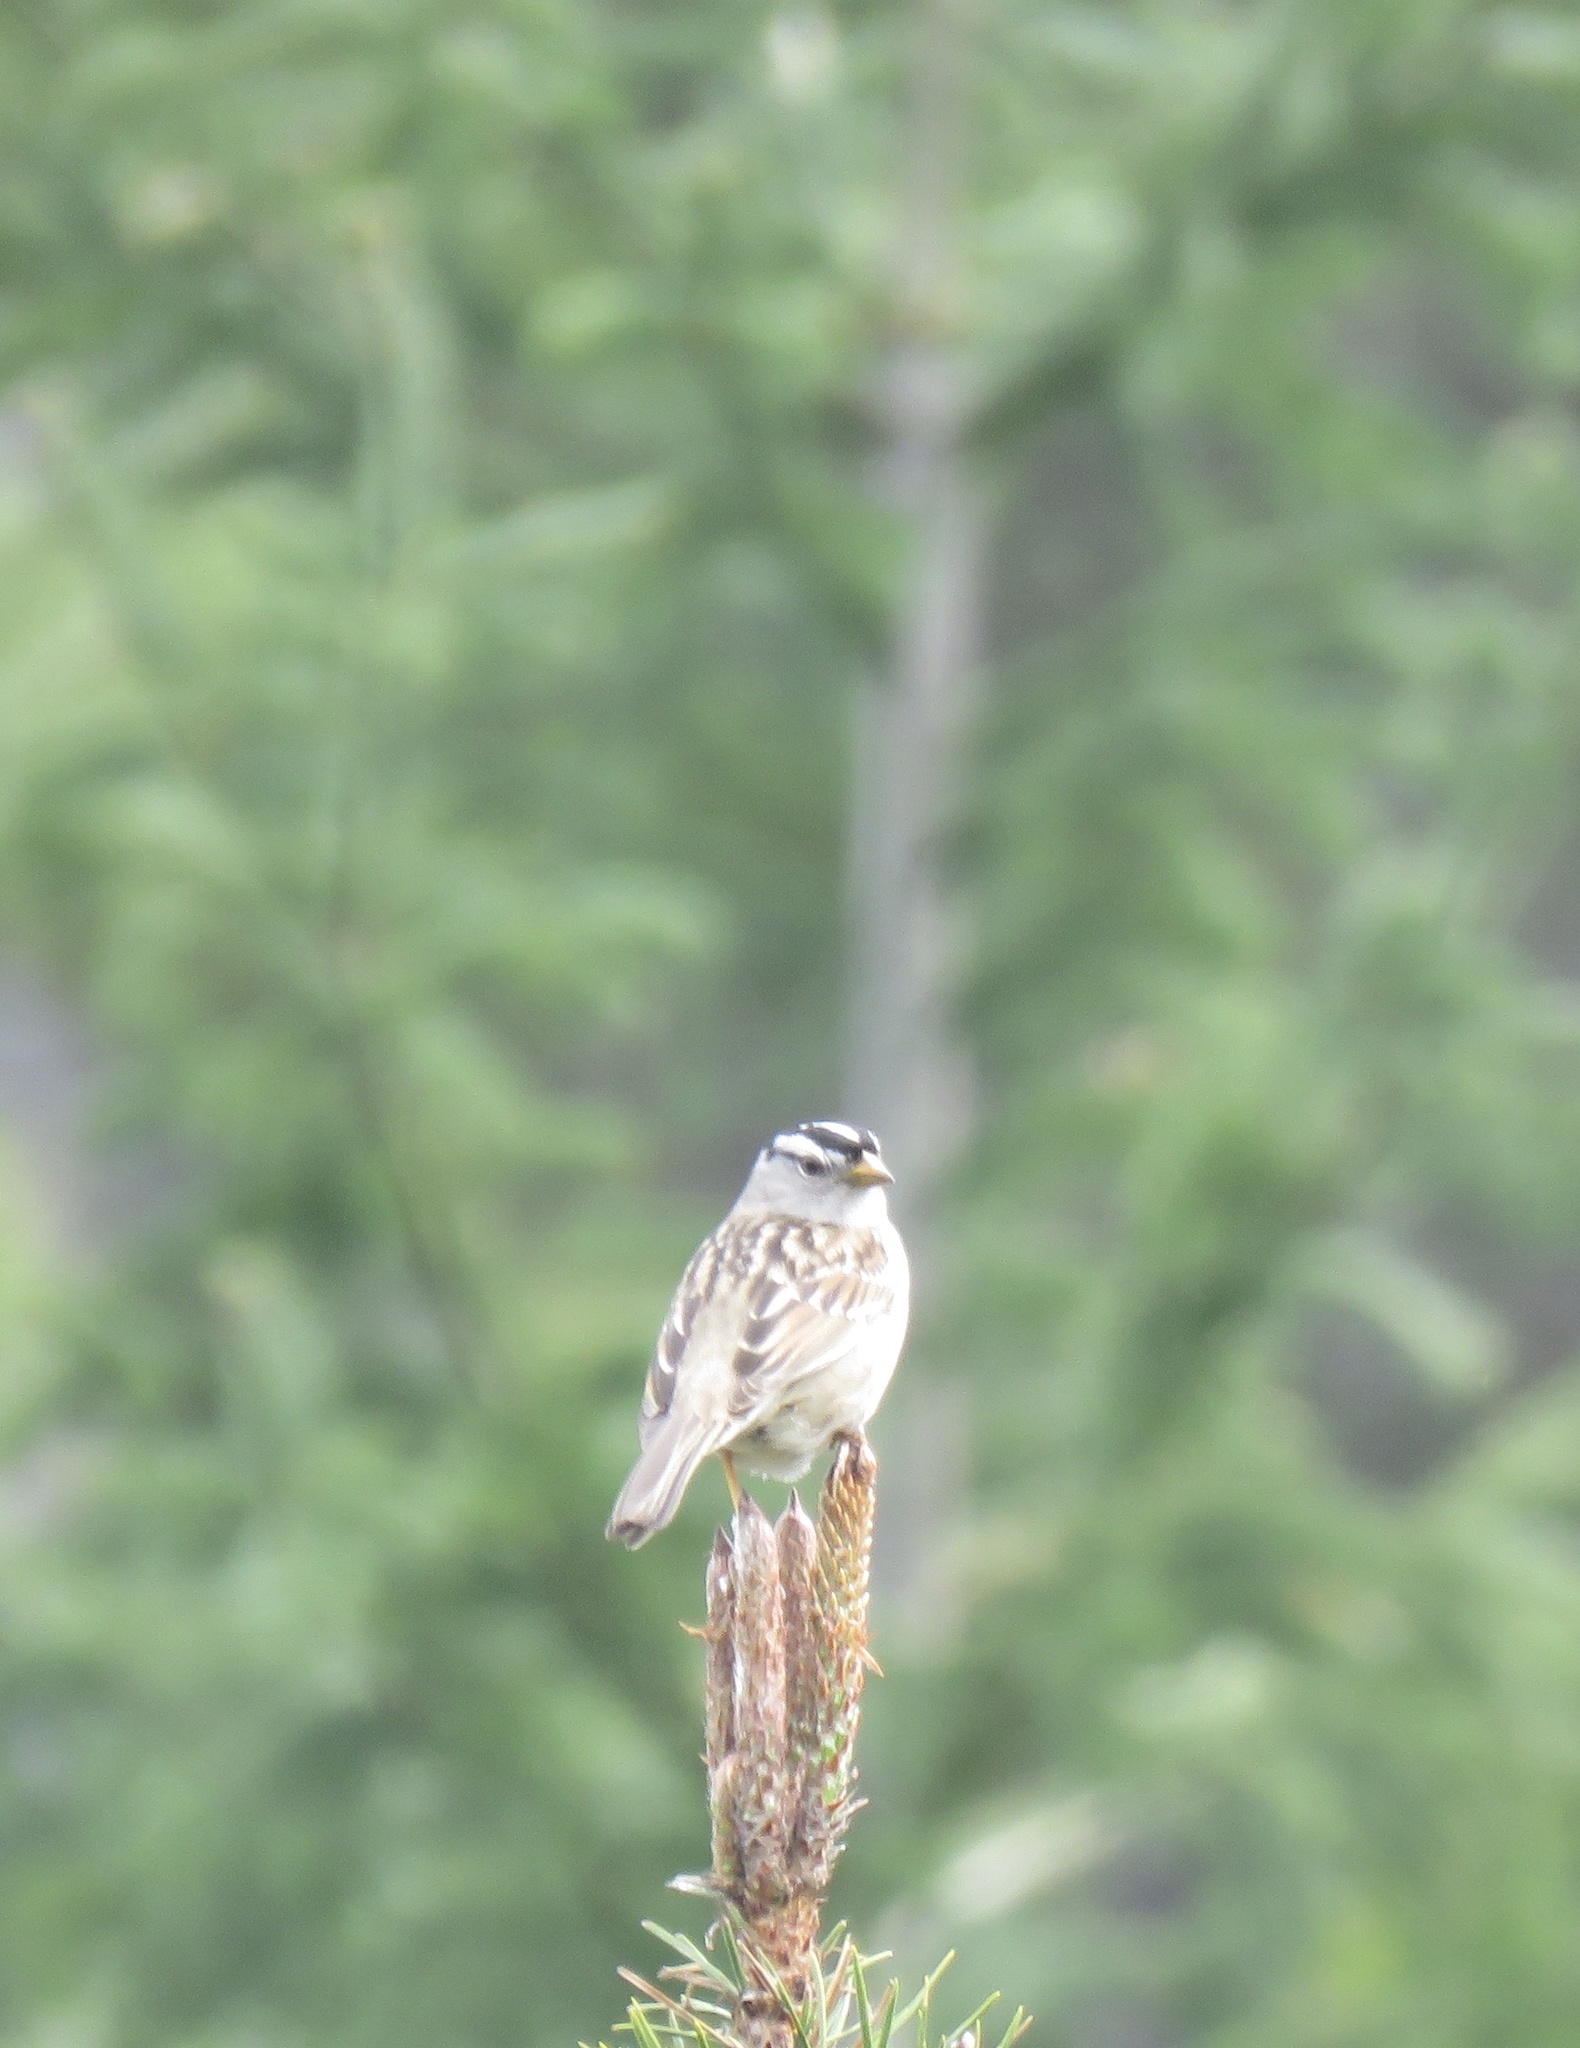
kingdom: Animalia
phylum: Chordata
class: Aves
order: Passeriformes
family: Passerellidae
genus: Zonotrichia
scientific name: Zonotrichia leucophrys
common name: White-crowned sparrow
